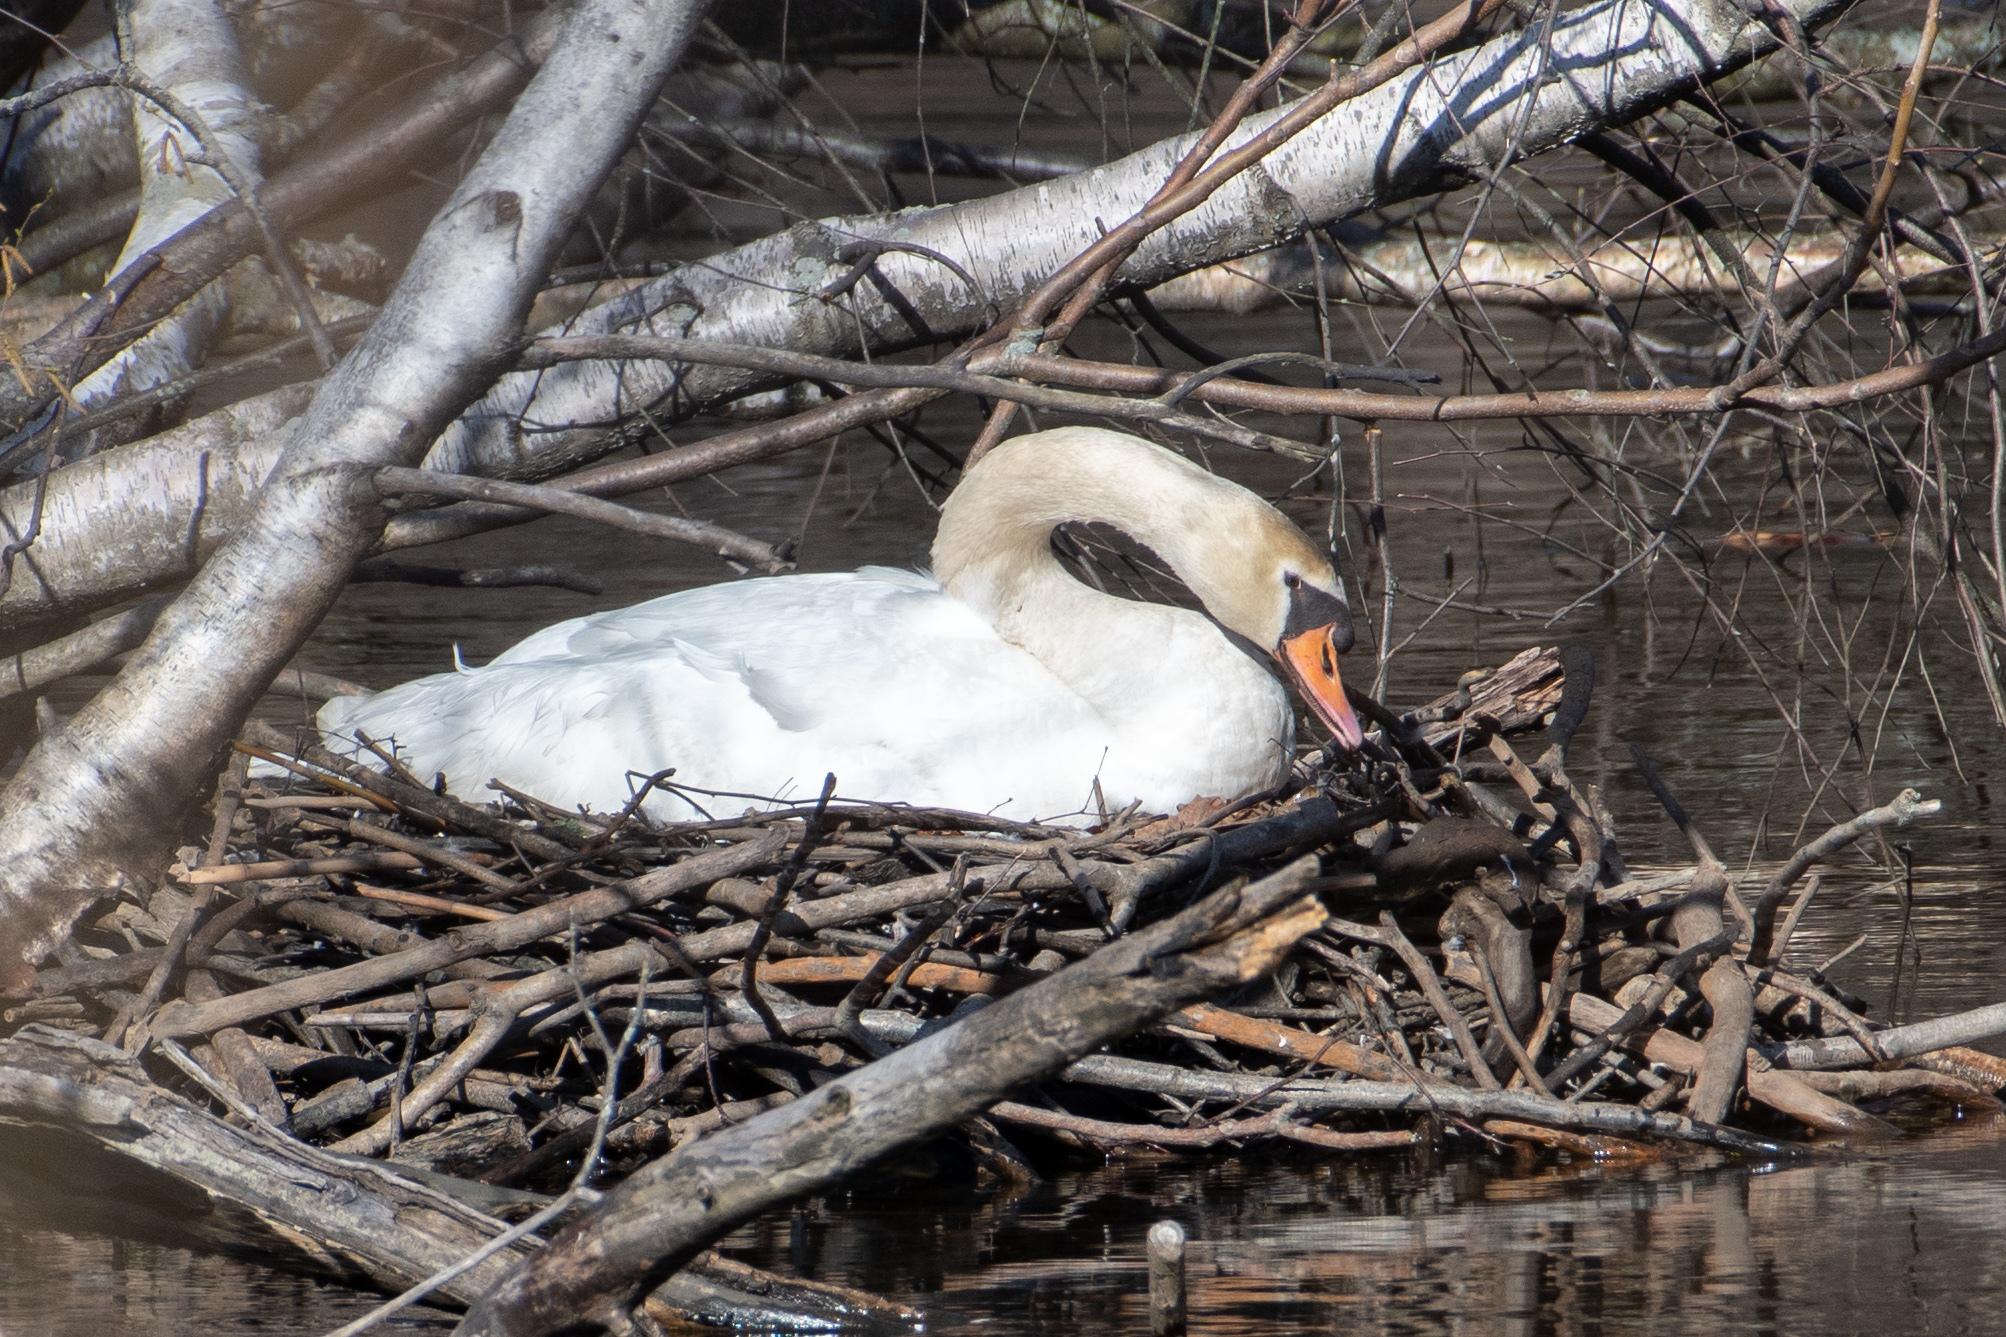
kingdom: Animalia
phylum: Chordata
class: Aves
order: Anseriformes
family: Anatidae
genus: Cygnus
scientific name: Cygnus olor
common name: Mute swan
